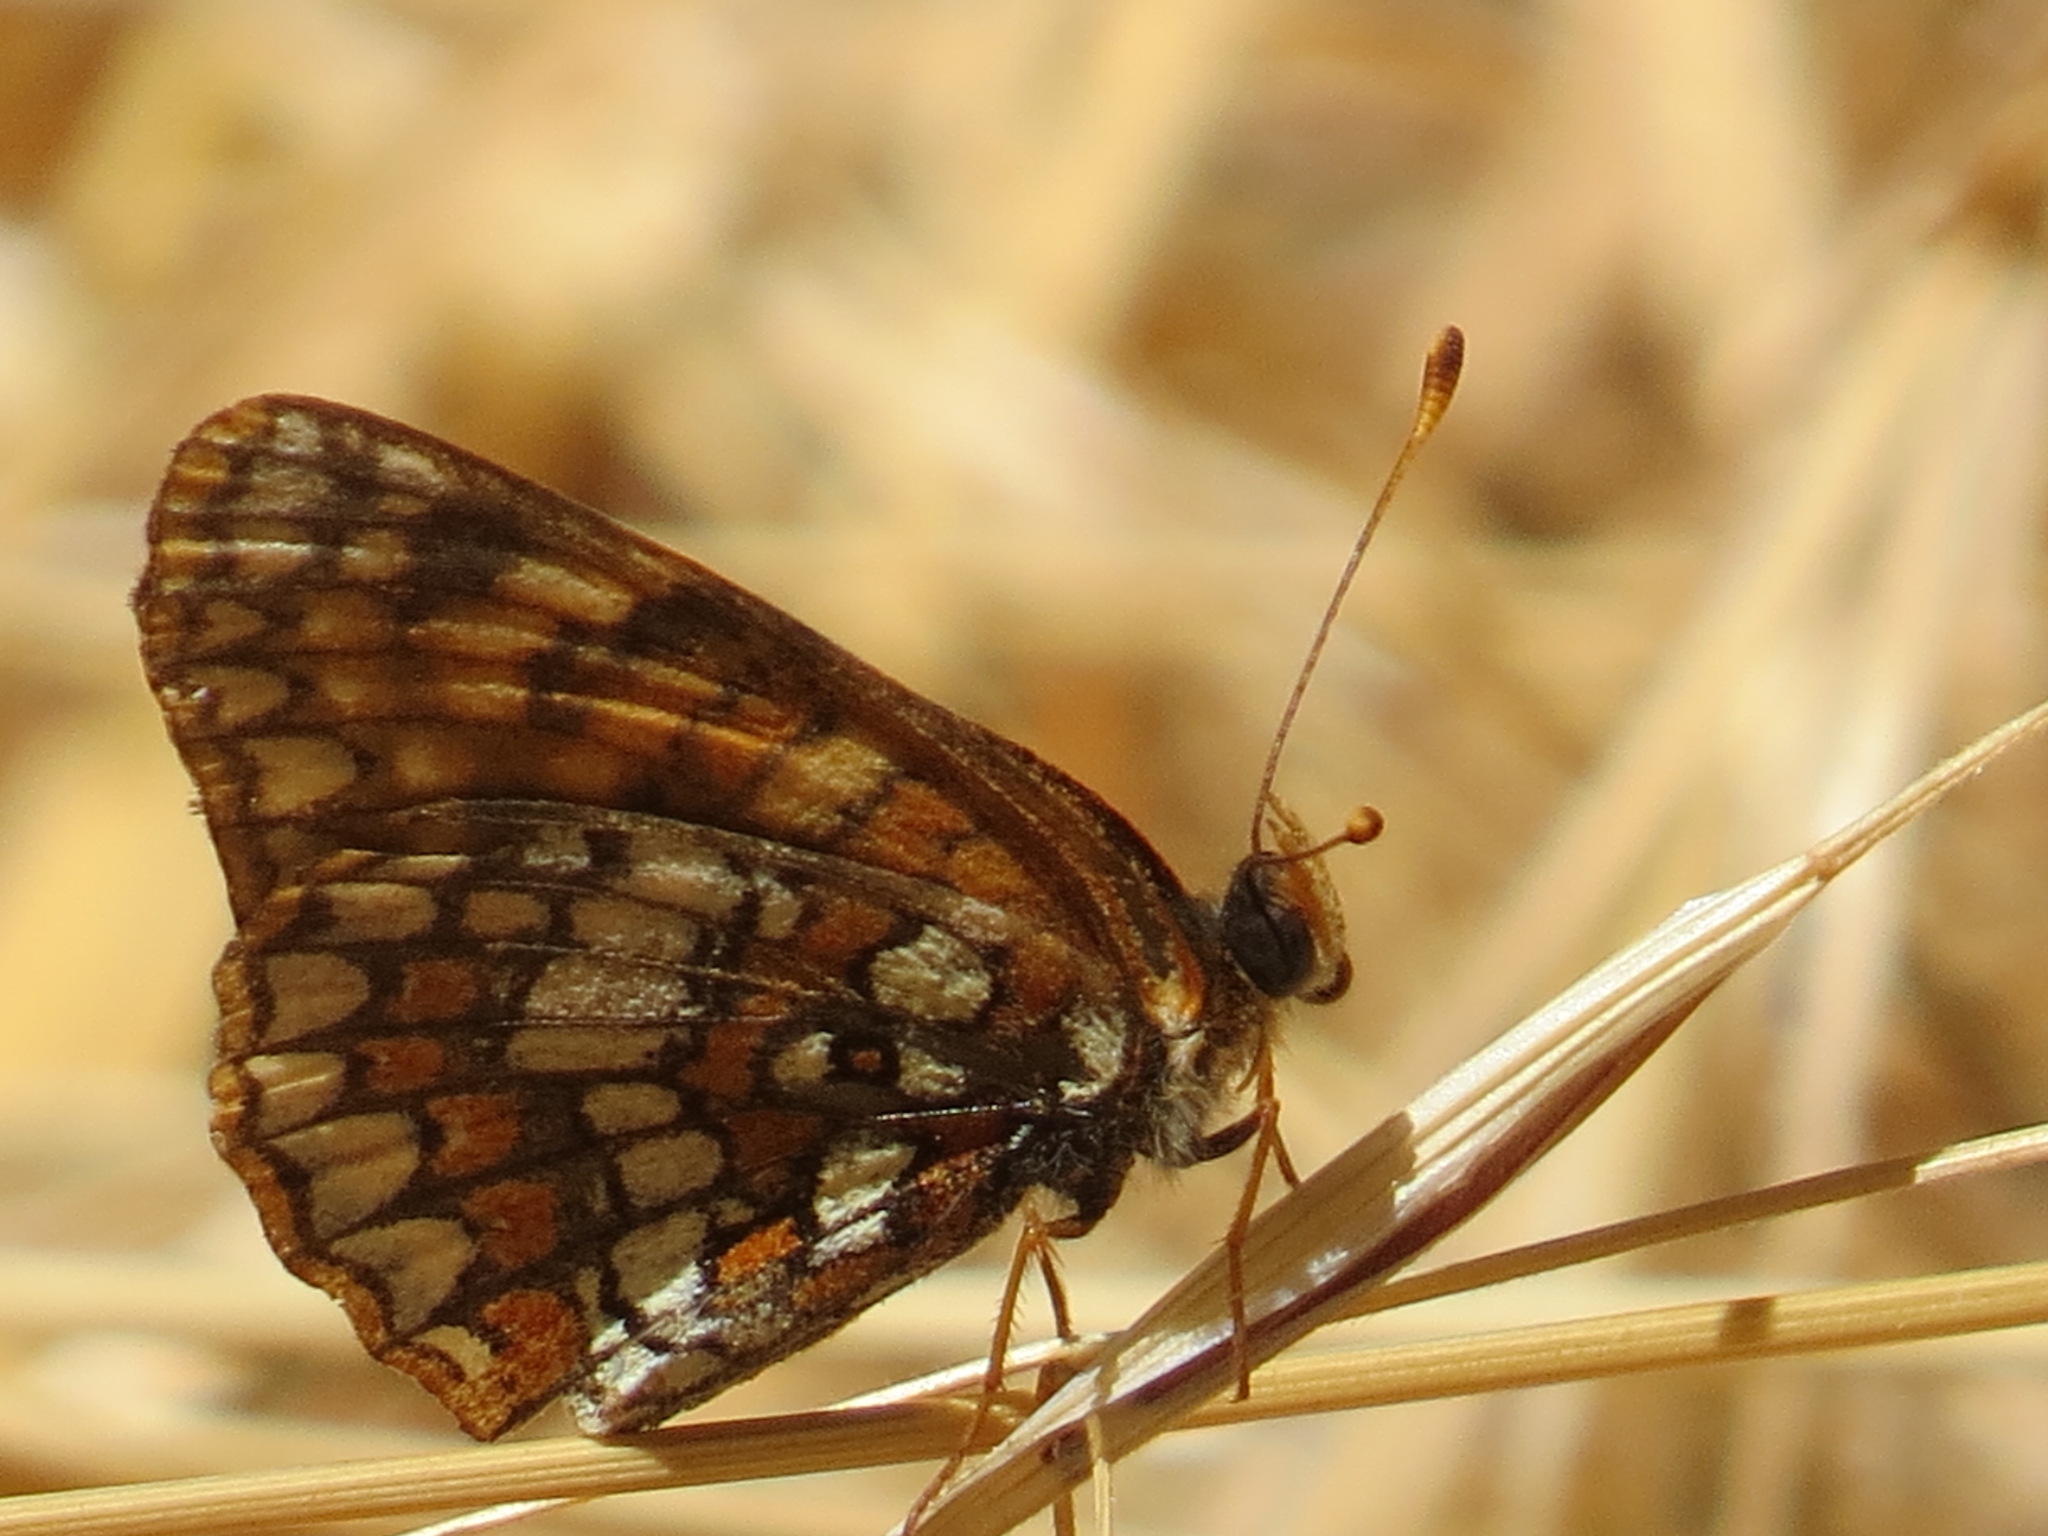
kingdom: Animalia
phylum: Arthropoda
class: Insecta
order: Lepidoptera
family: Nymphalidae
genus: Chlosyne
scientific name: Chlosyne palla
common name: Northern checkerspot
